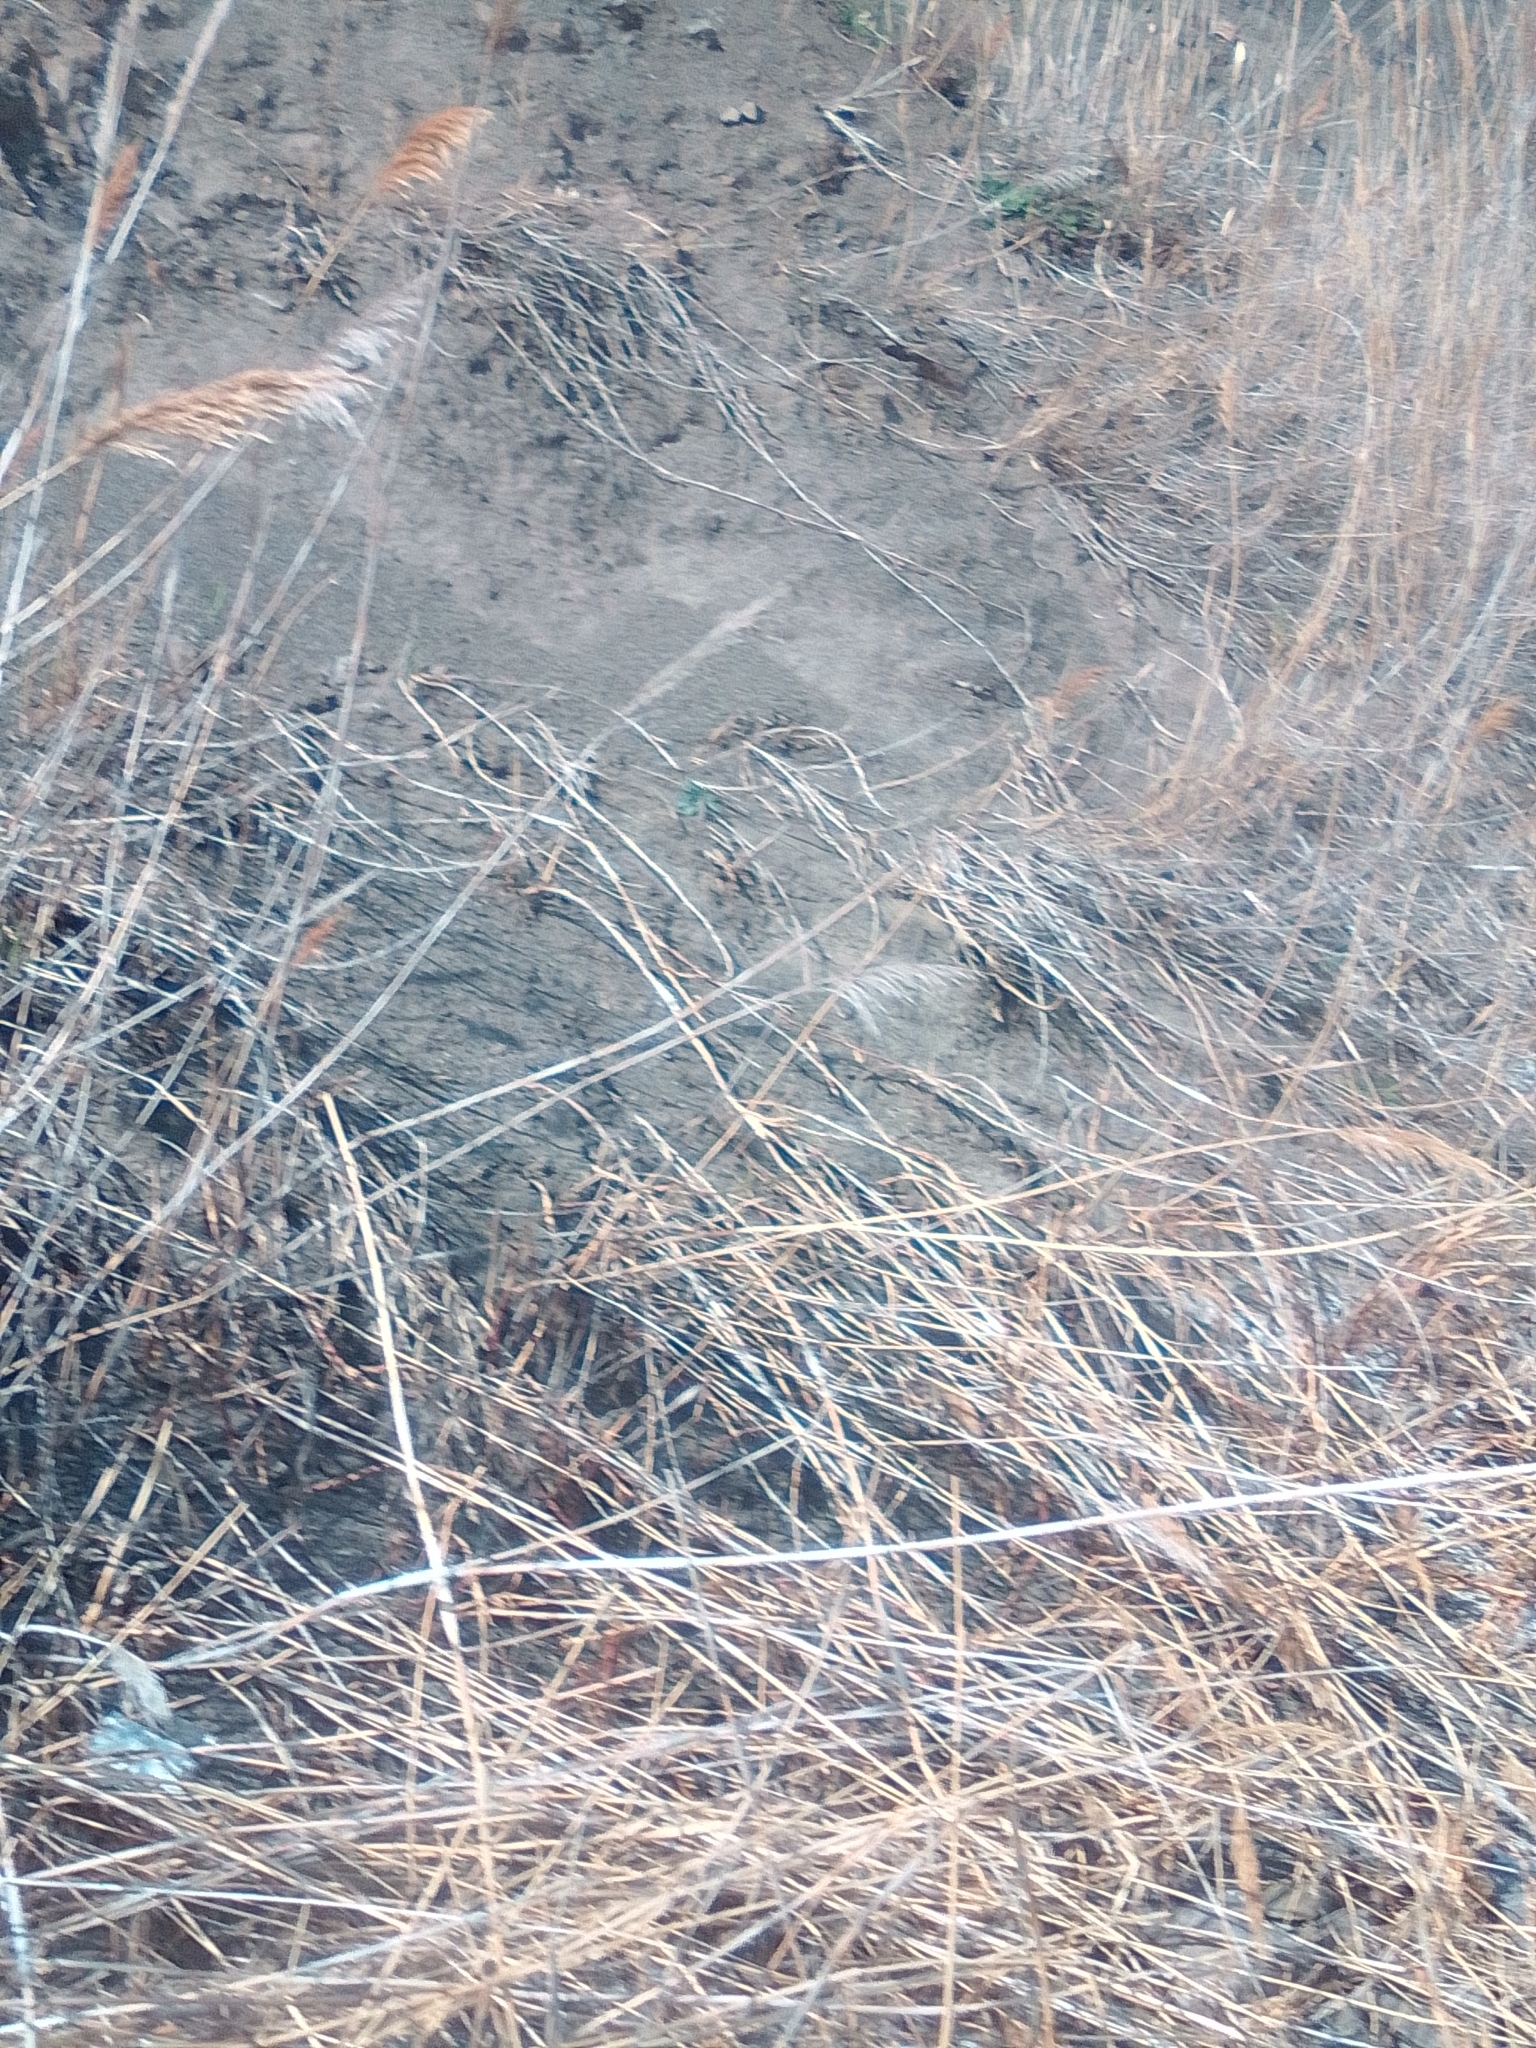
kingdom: Plantae
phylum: Tracheophyta
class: Liliopsida
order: Poales
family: Poaceae
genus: Phragmites
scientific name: Phragmites australis
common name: Common reed
